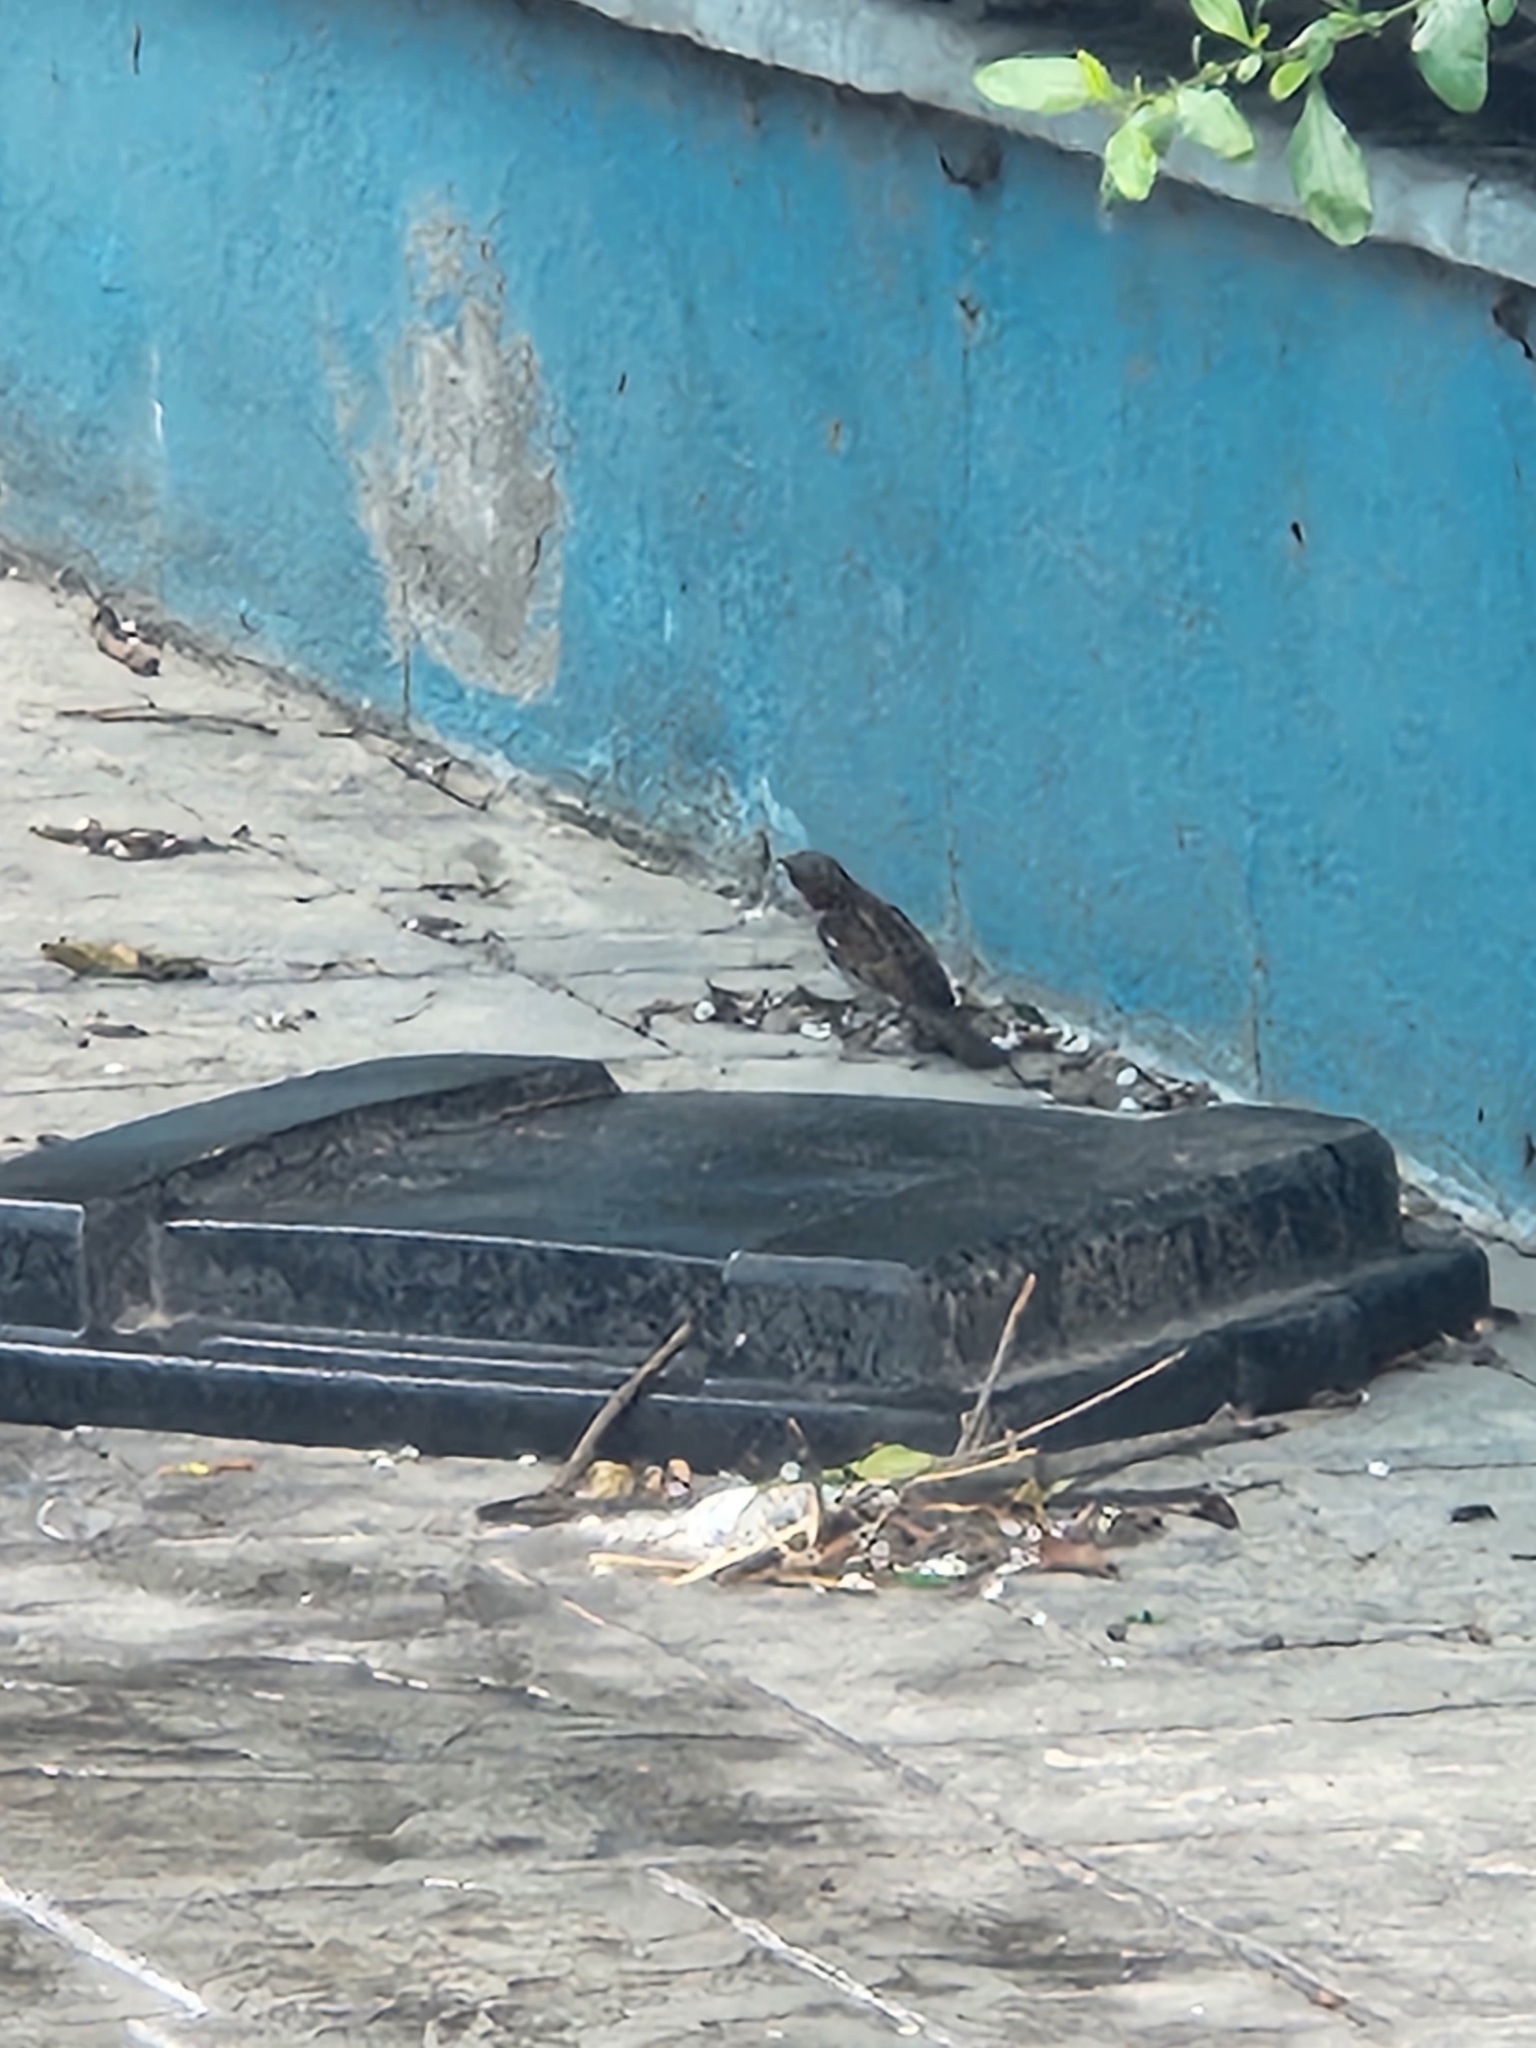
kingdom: Animalia
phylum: Chordata
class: Aves
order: Passeriformes
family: Passeridae
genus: Passer
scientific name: Passer domesticus
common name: House sparrow
